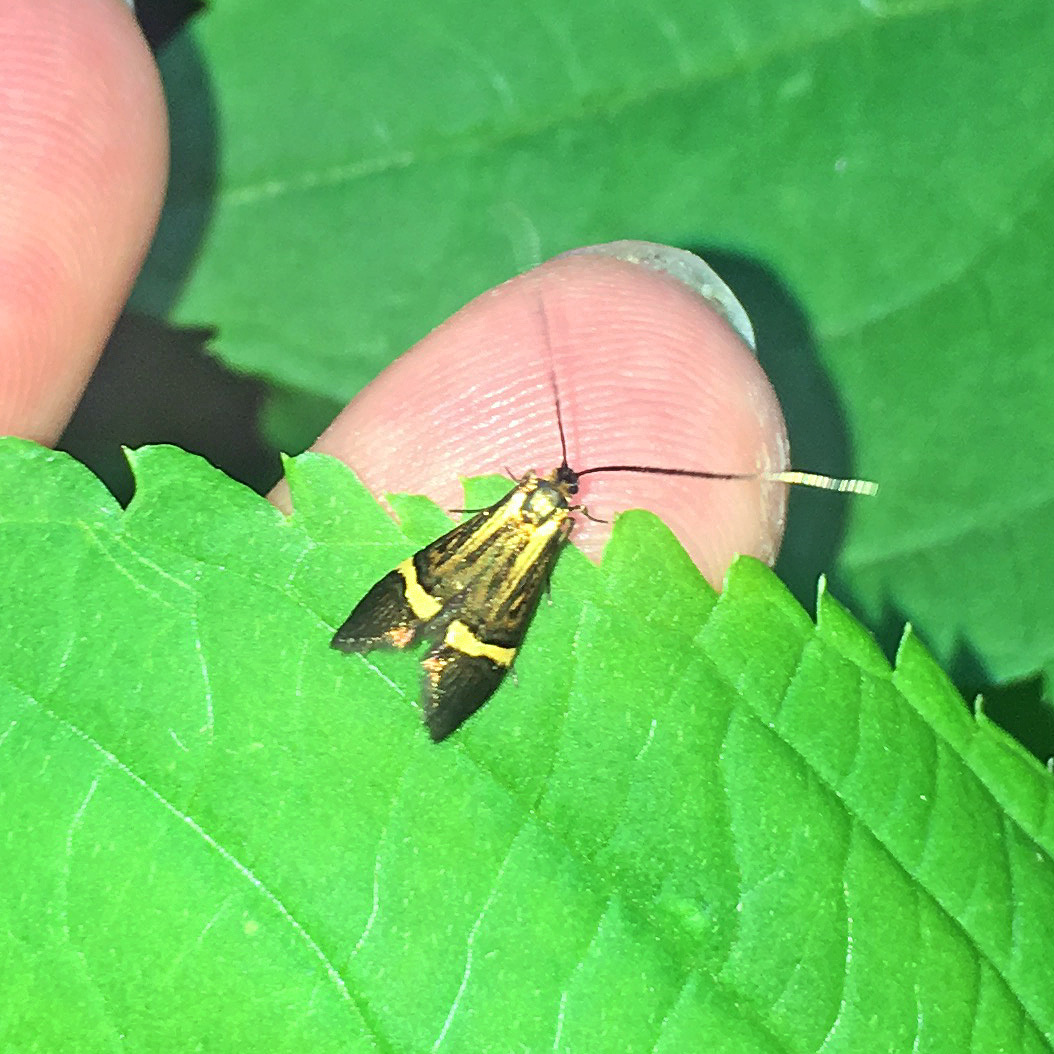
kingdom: Animalia
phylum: Arthropoda
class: Insecta
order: Lepidoptera
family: Adelidae
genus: Nemophora
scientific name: Nemophora degeerella
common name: Yellow-barred long-horn
